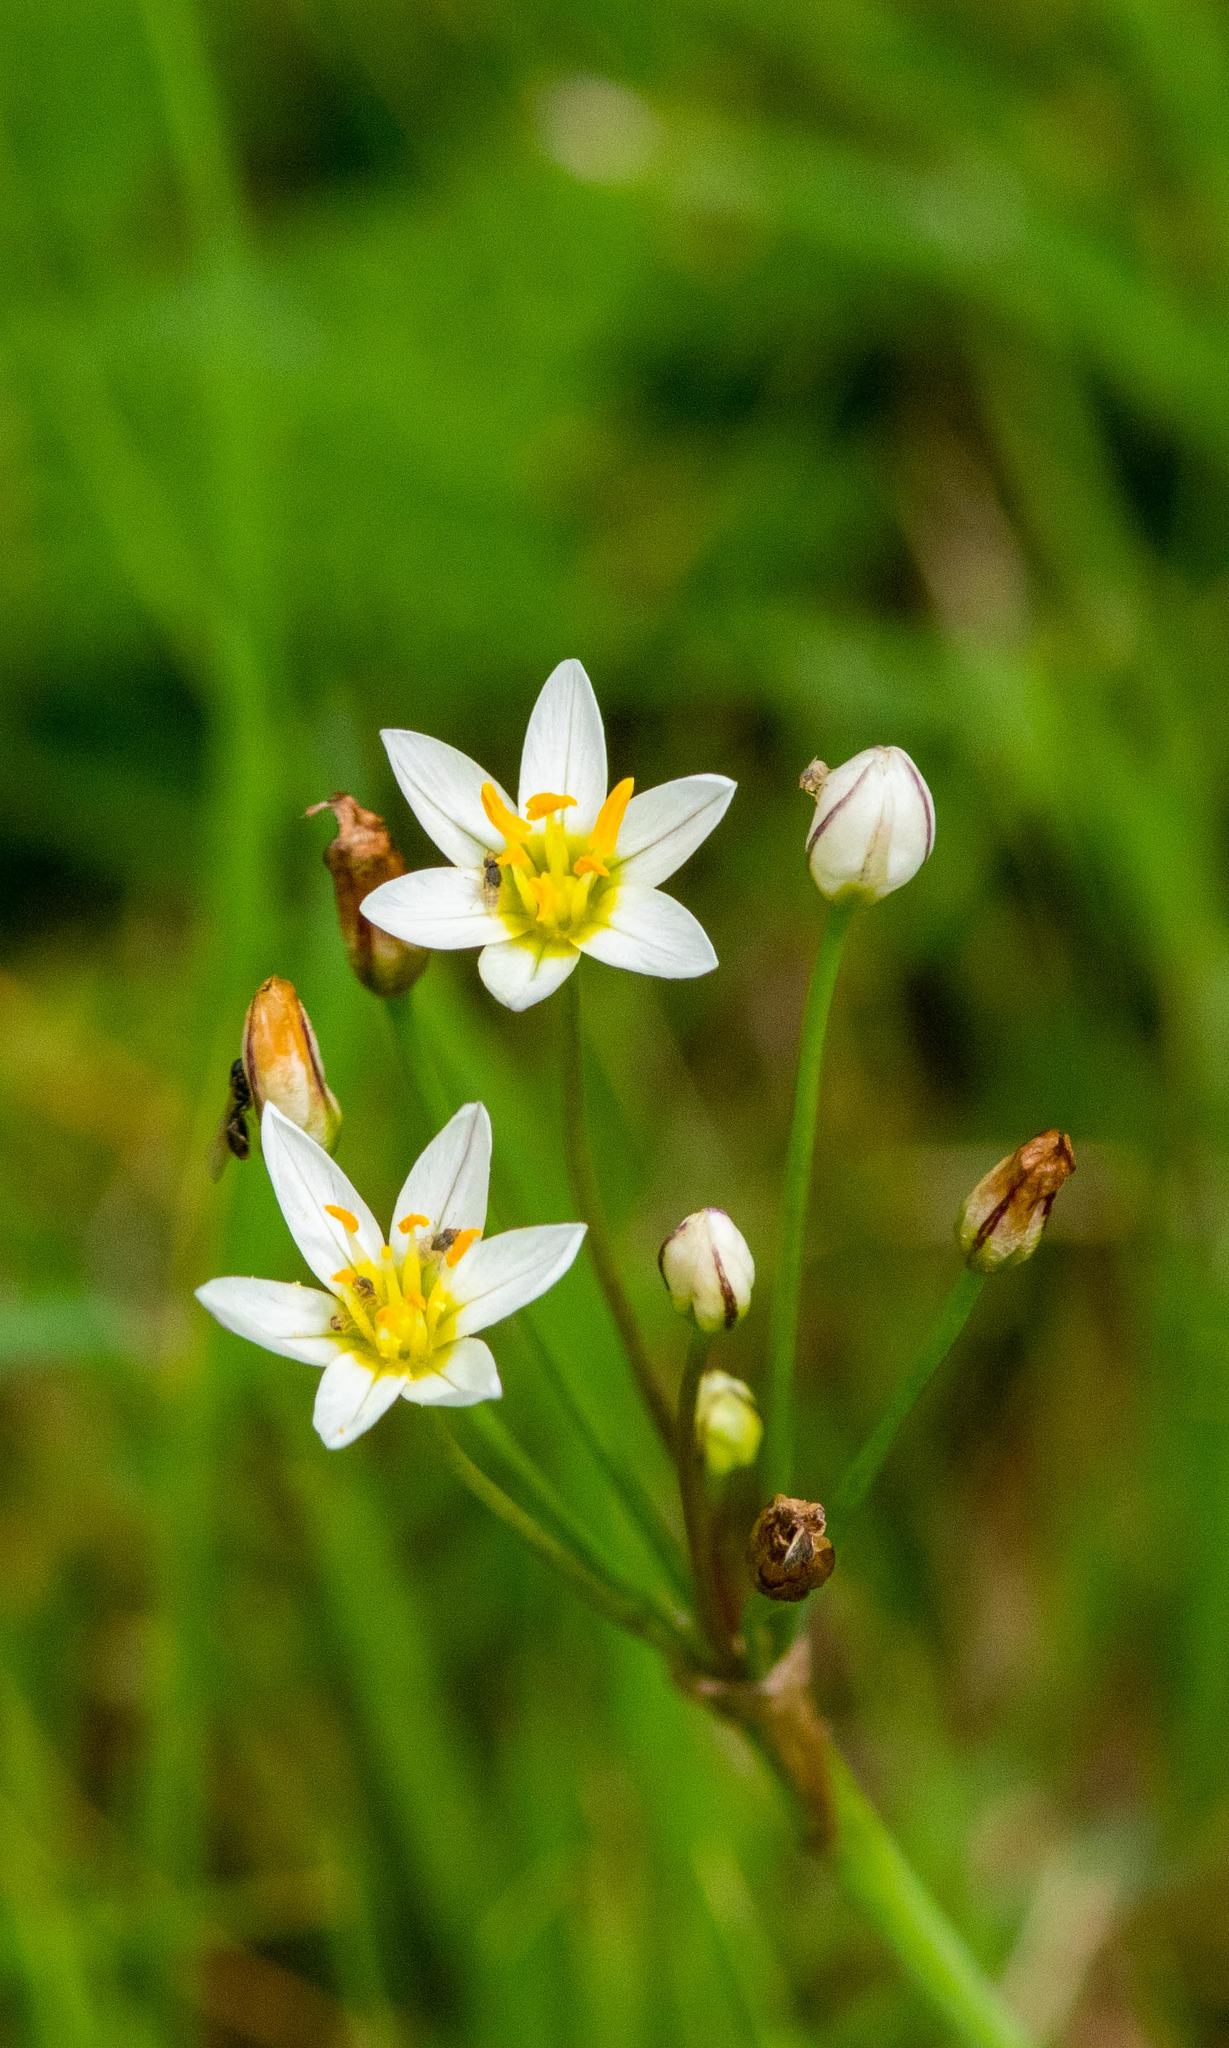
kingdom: Plantae
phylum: Tracheophyta
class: Liliopsida
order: Asparagales
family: Amaryllidaceae
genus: Nothoscordum
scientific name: Nothoscordum bivalve
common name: Crow-poison
